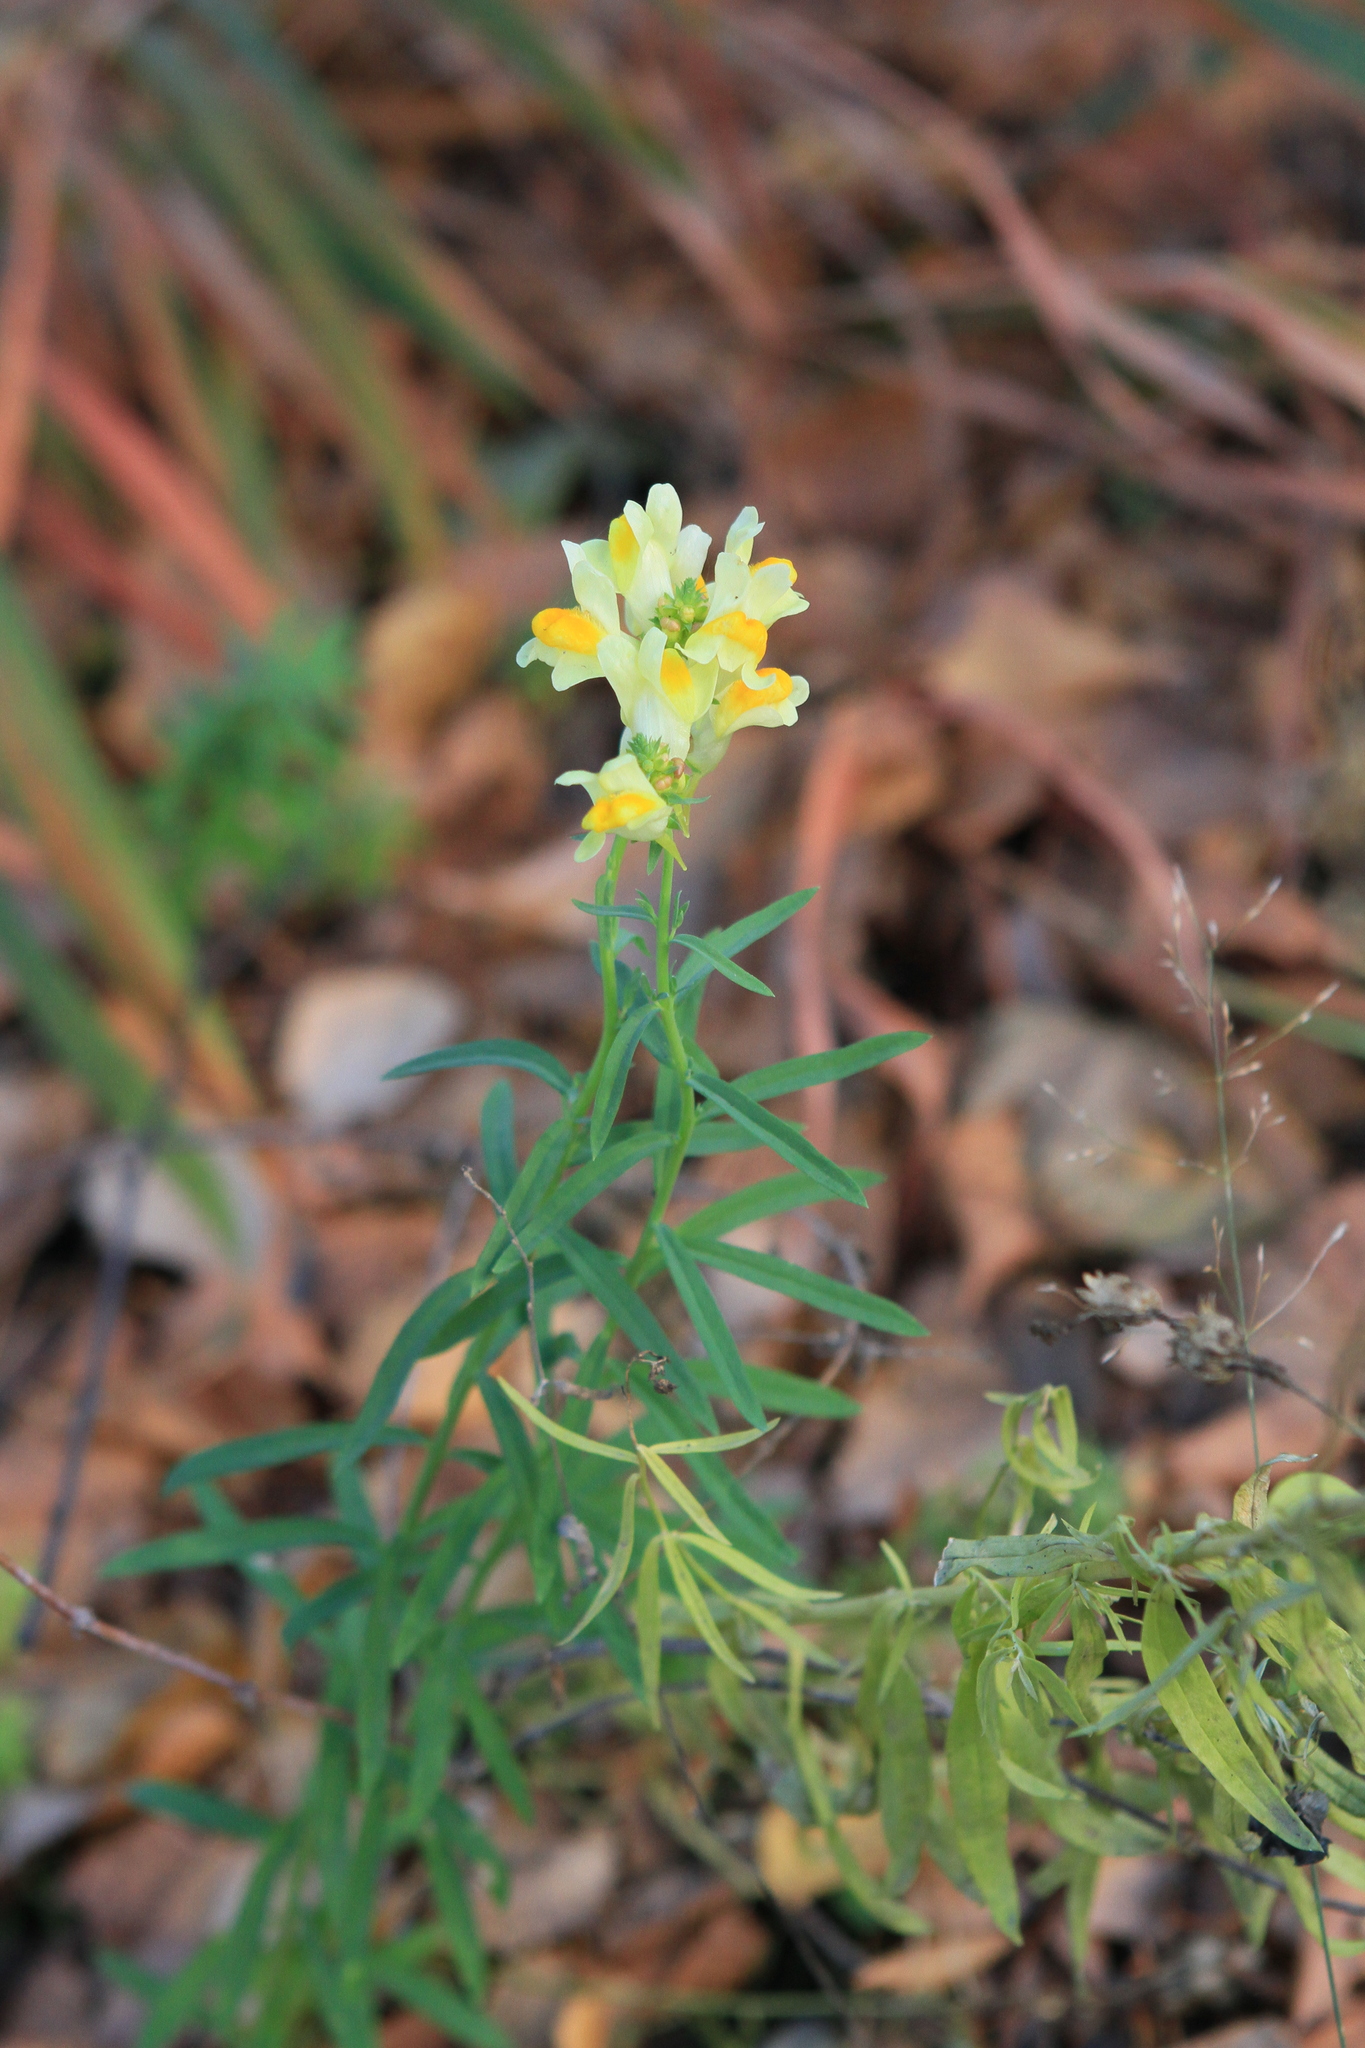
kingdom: Plantae
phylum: Tracheophyta
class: Magnoliopsida
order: Lamiales
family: Plantaginaceae
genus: Linaria
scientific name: Linaria vulgaris
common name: Butter and eggs
